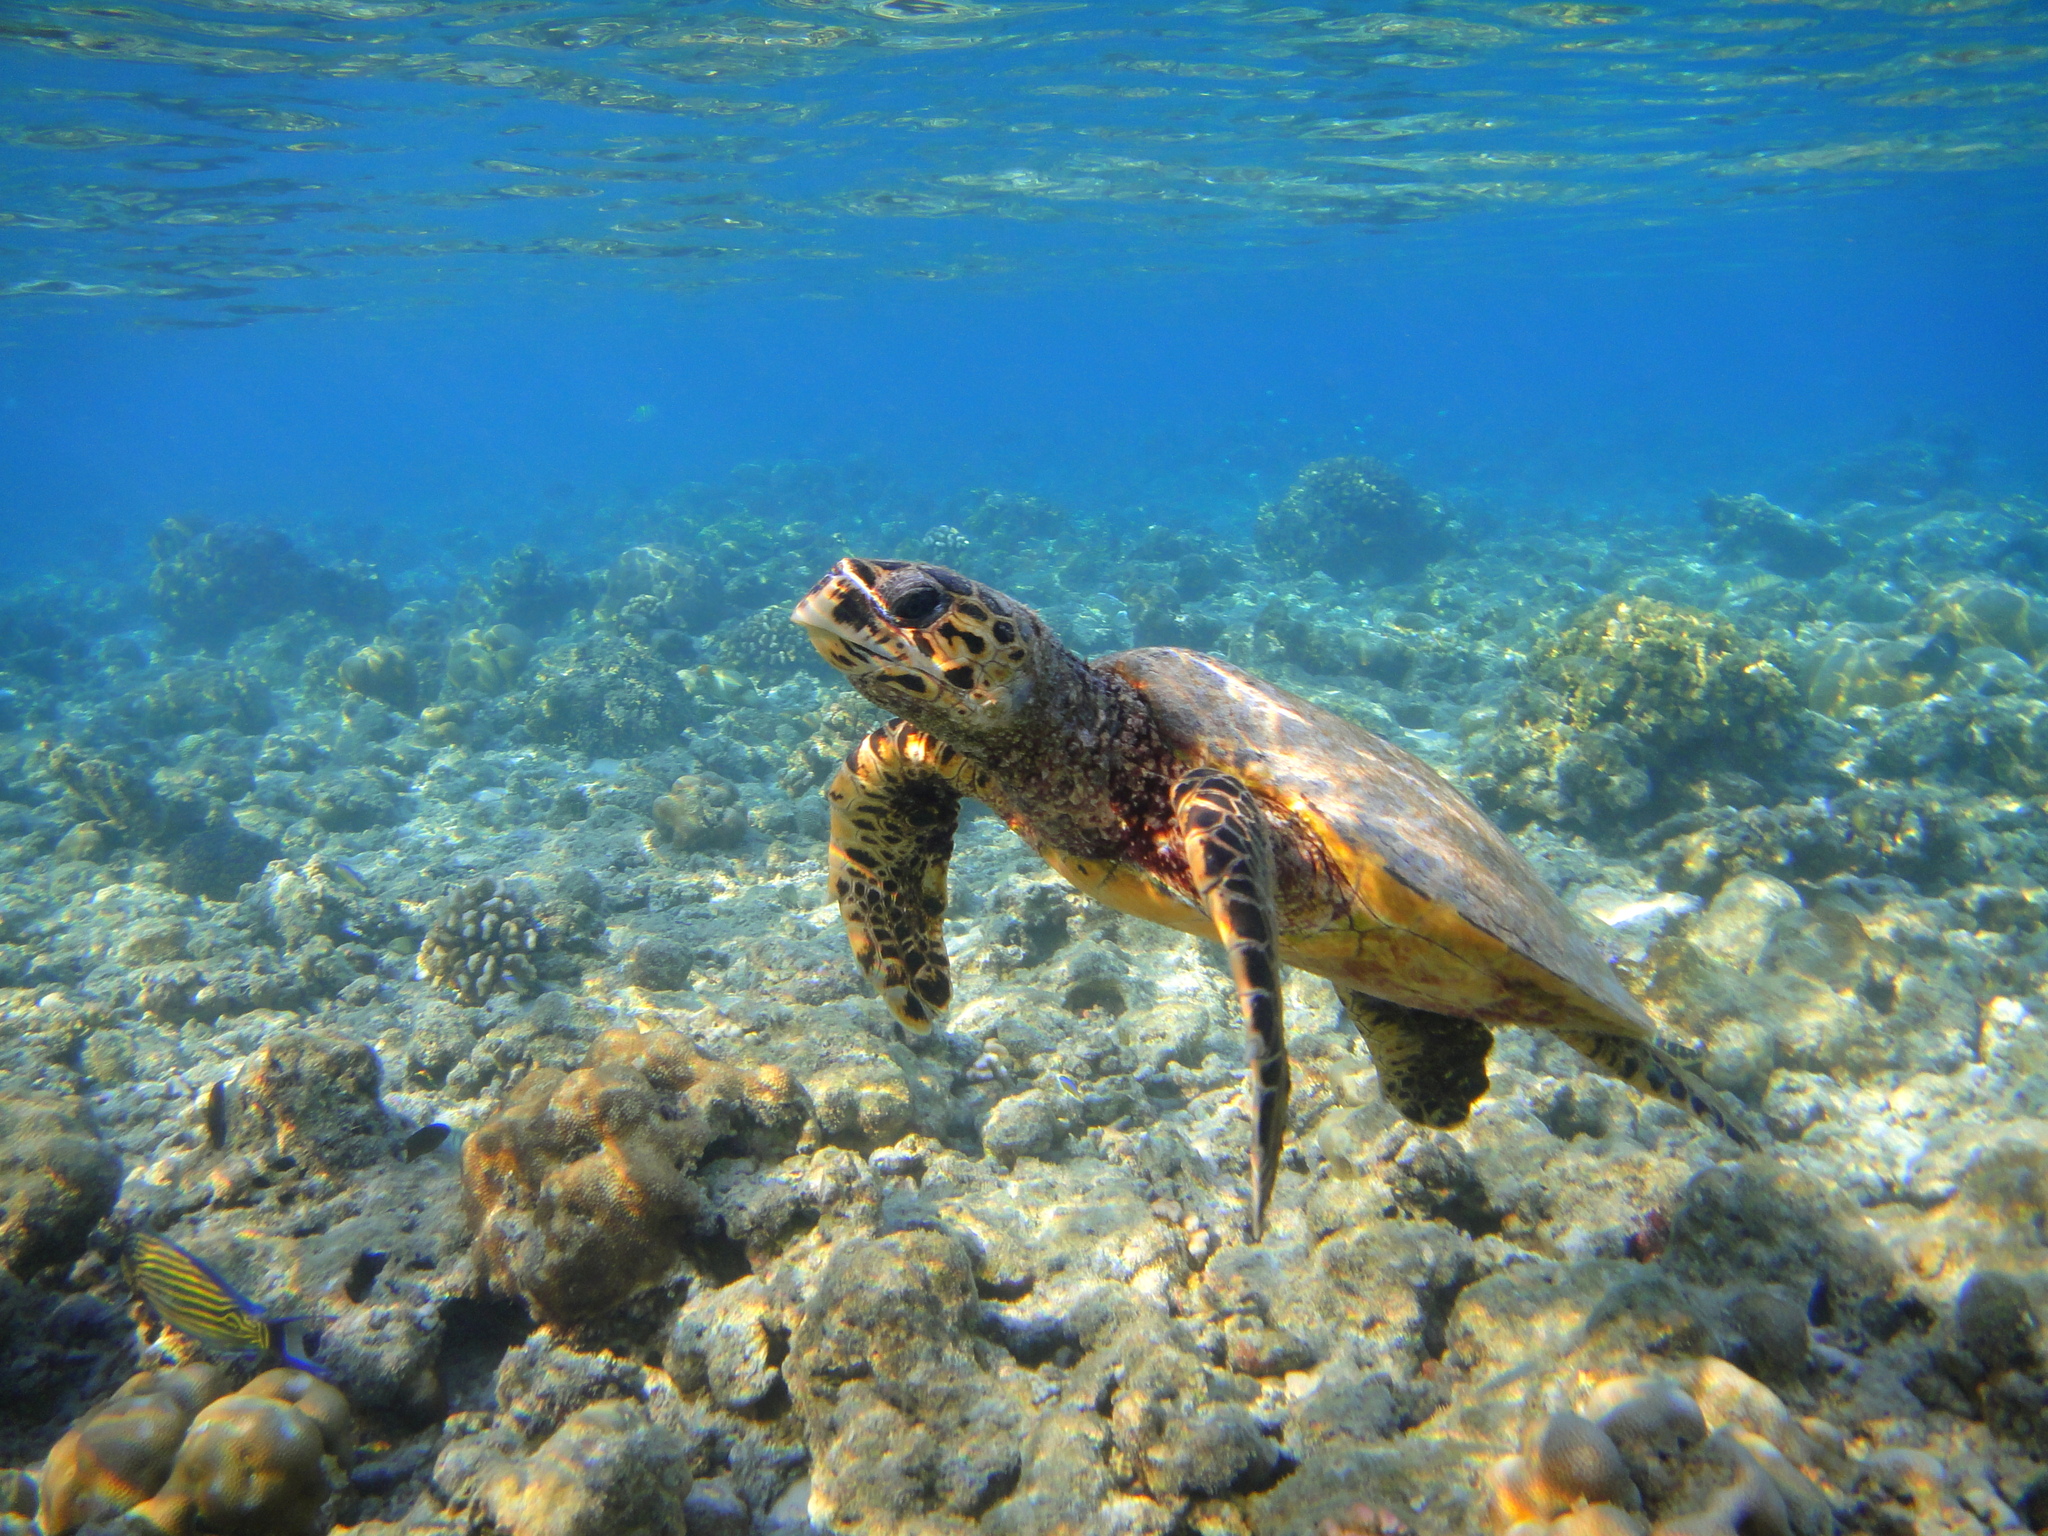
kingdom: Animalia
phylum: Chordata
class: Testudines
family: Cheloniidae
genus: Eretmochelys
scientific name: Eretmochelys imbricata
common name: Hawksbill turtle
